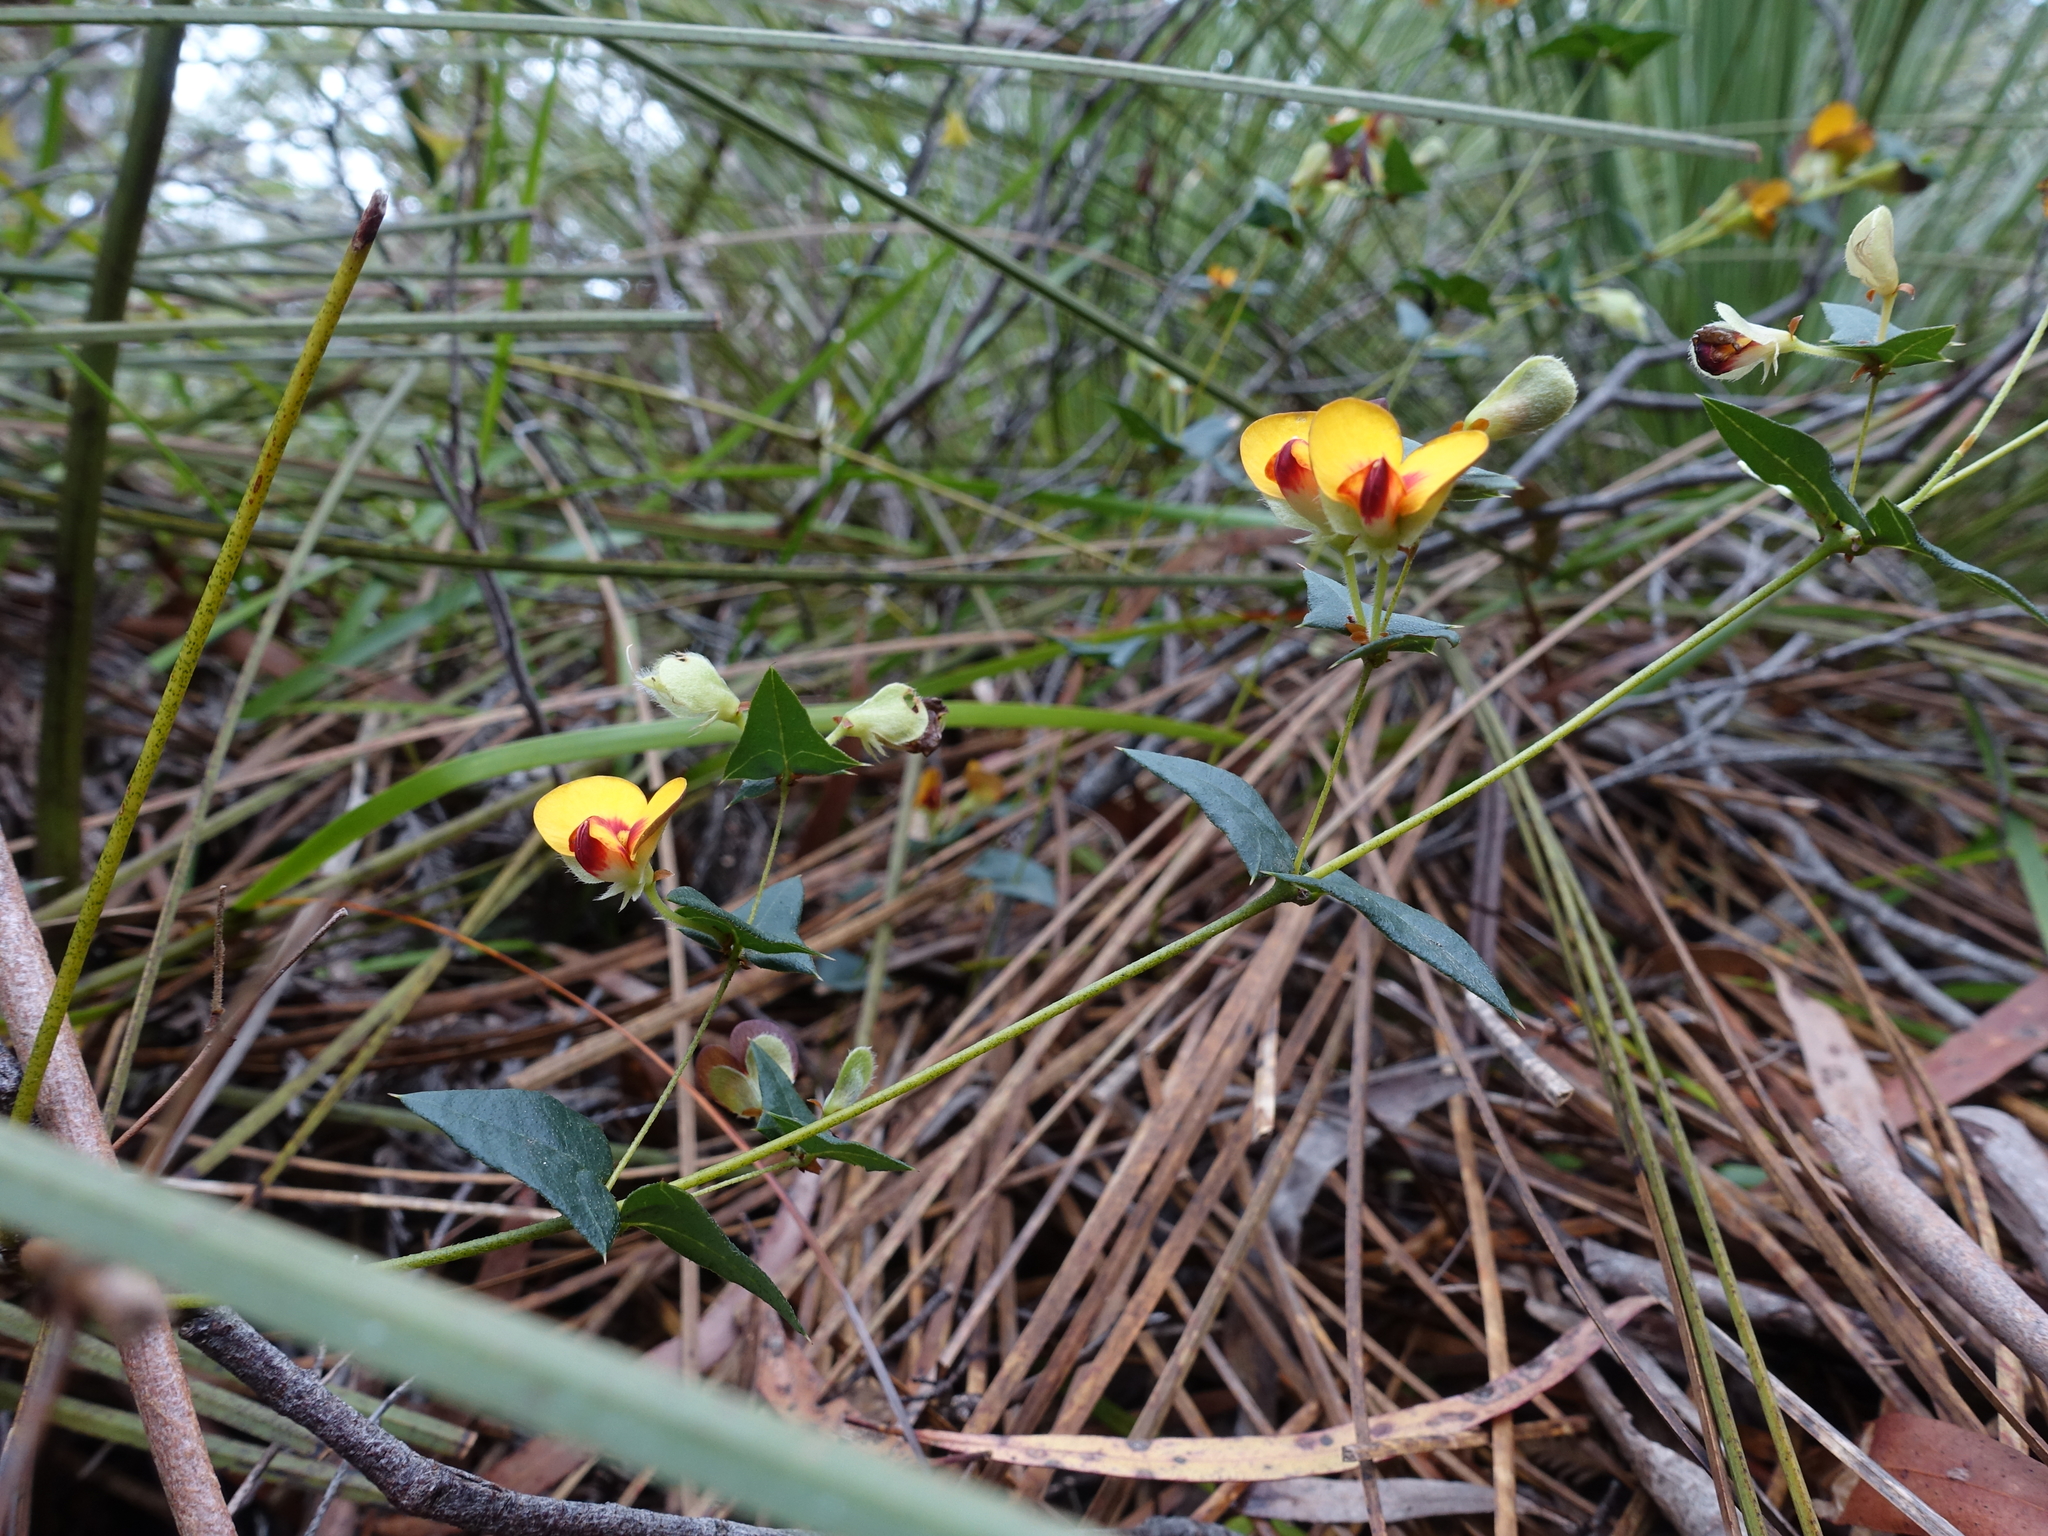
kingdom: Plantae
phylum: Tracheophyta
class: Magnoliopsida
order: Fabales
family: Fabaceae
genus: Platylobium
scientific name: Platylobium triangulare
